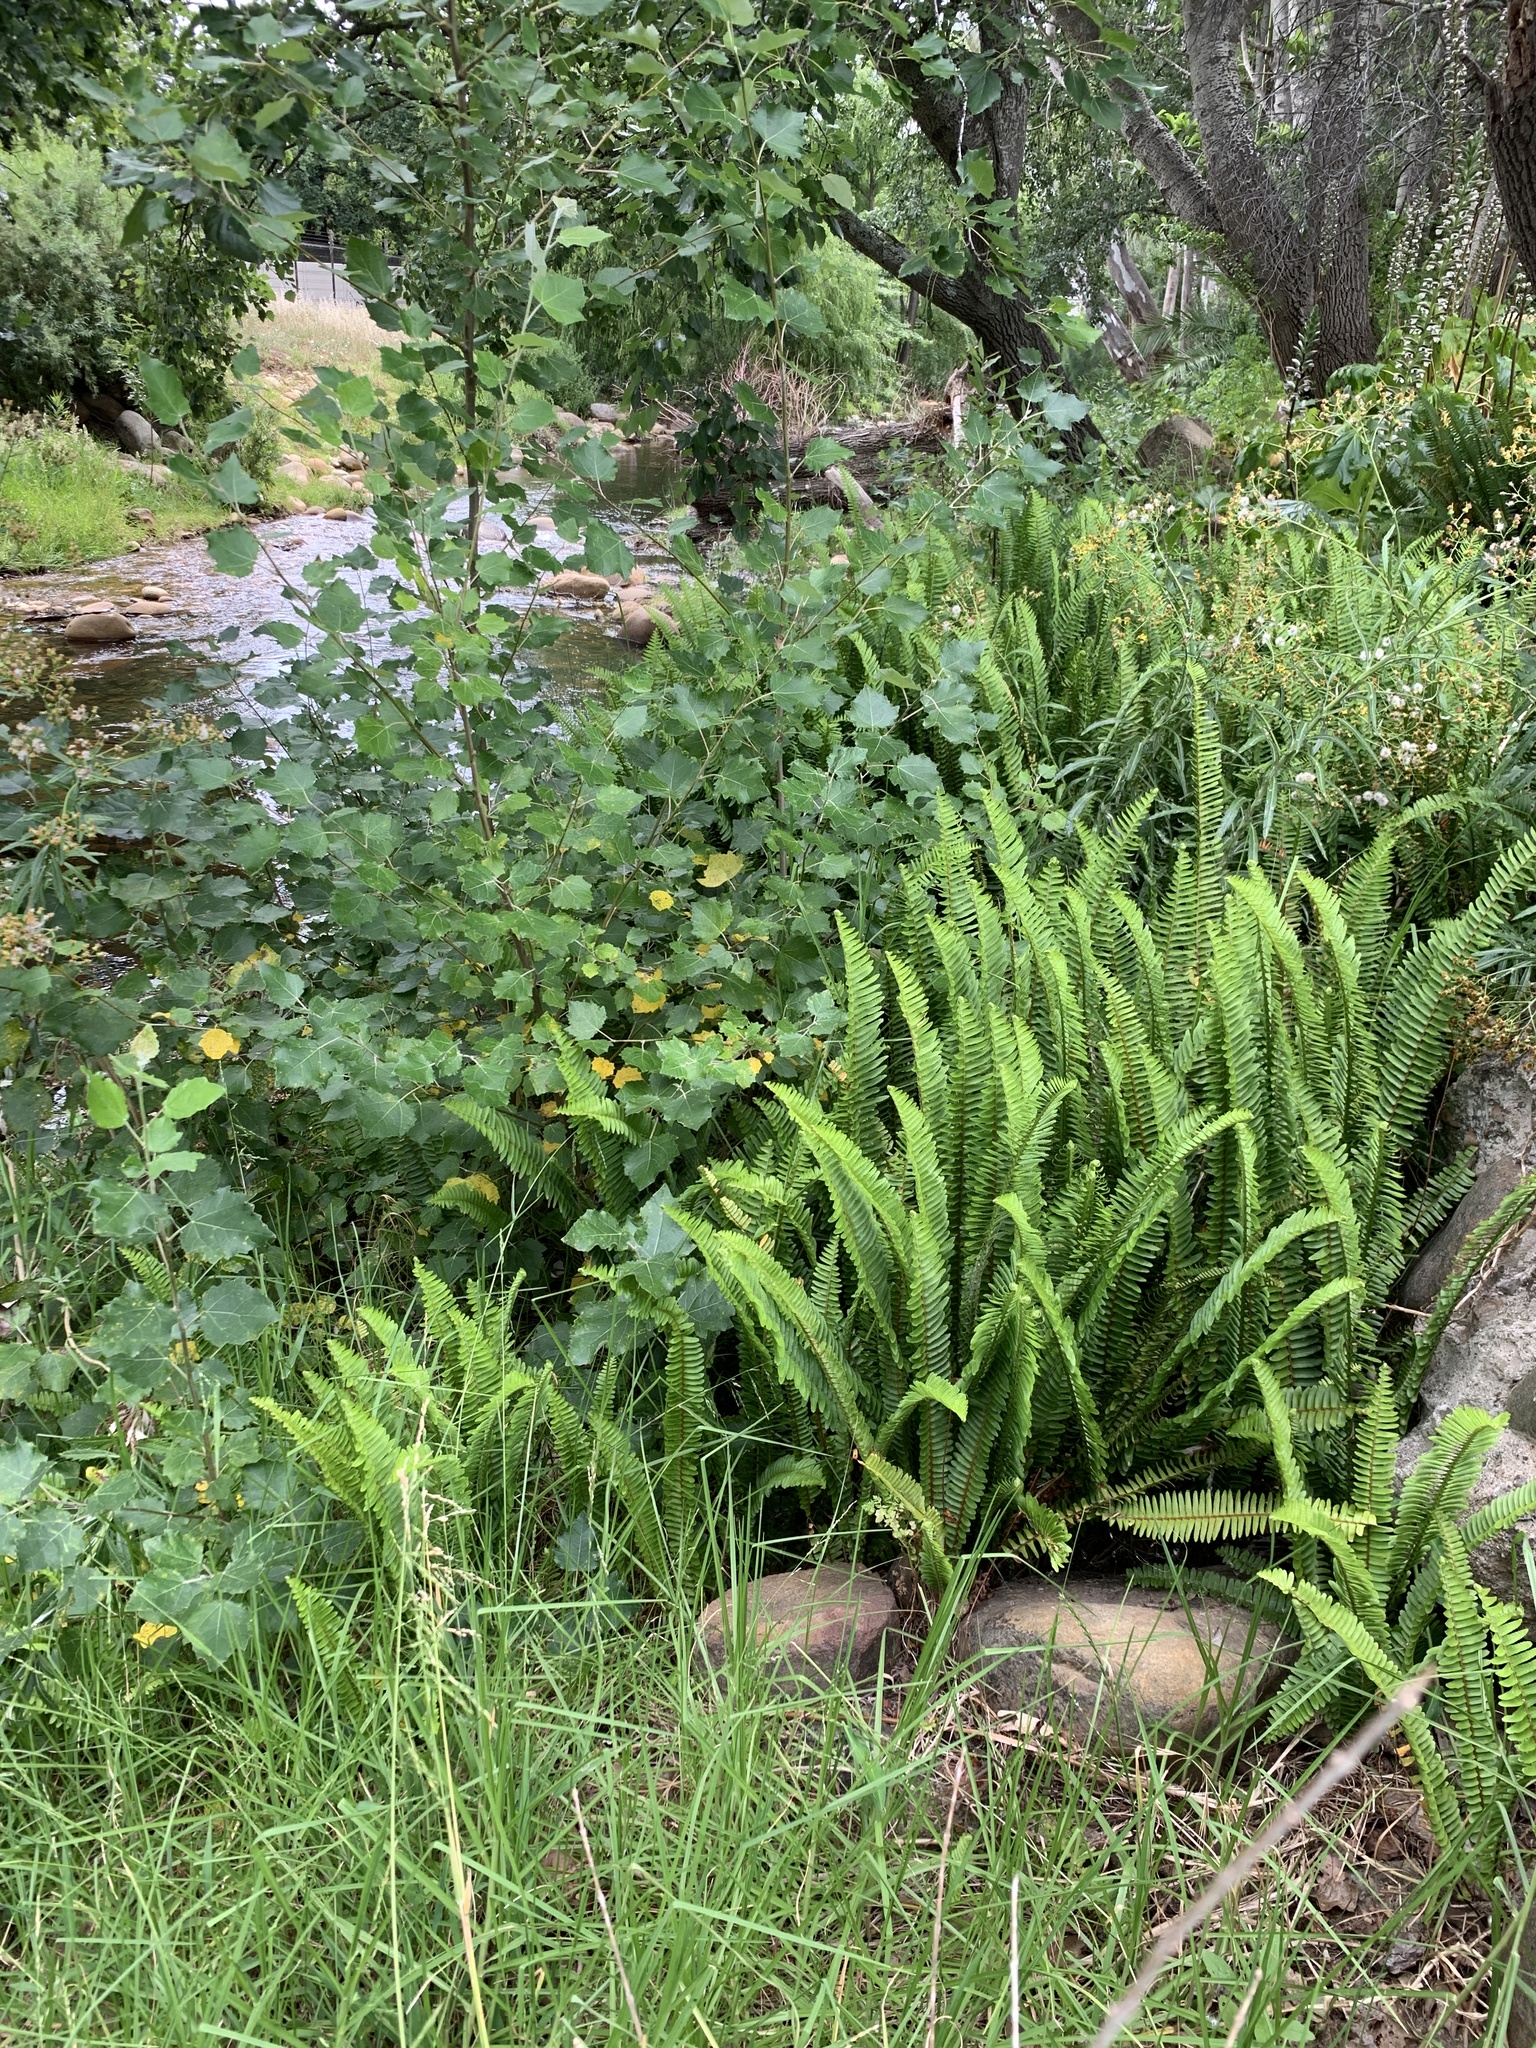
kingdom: Plantae
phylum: Tracheophyta
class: Polypodiopsida
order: Polypodiales
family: Nephrolepidaceae
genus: Nephrolepis
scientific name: Nephrolepis cordifolia
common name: Narrow swordfern
